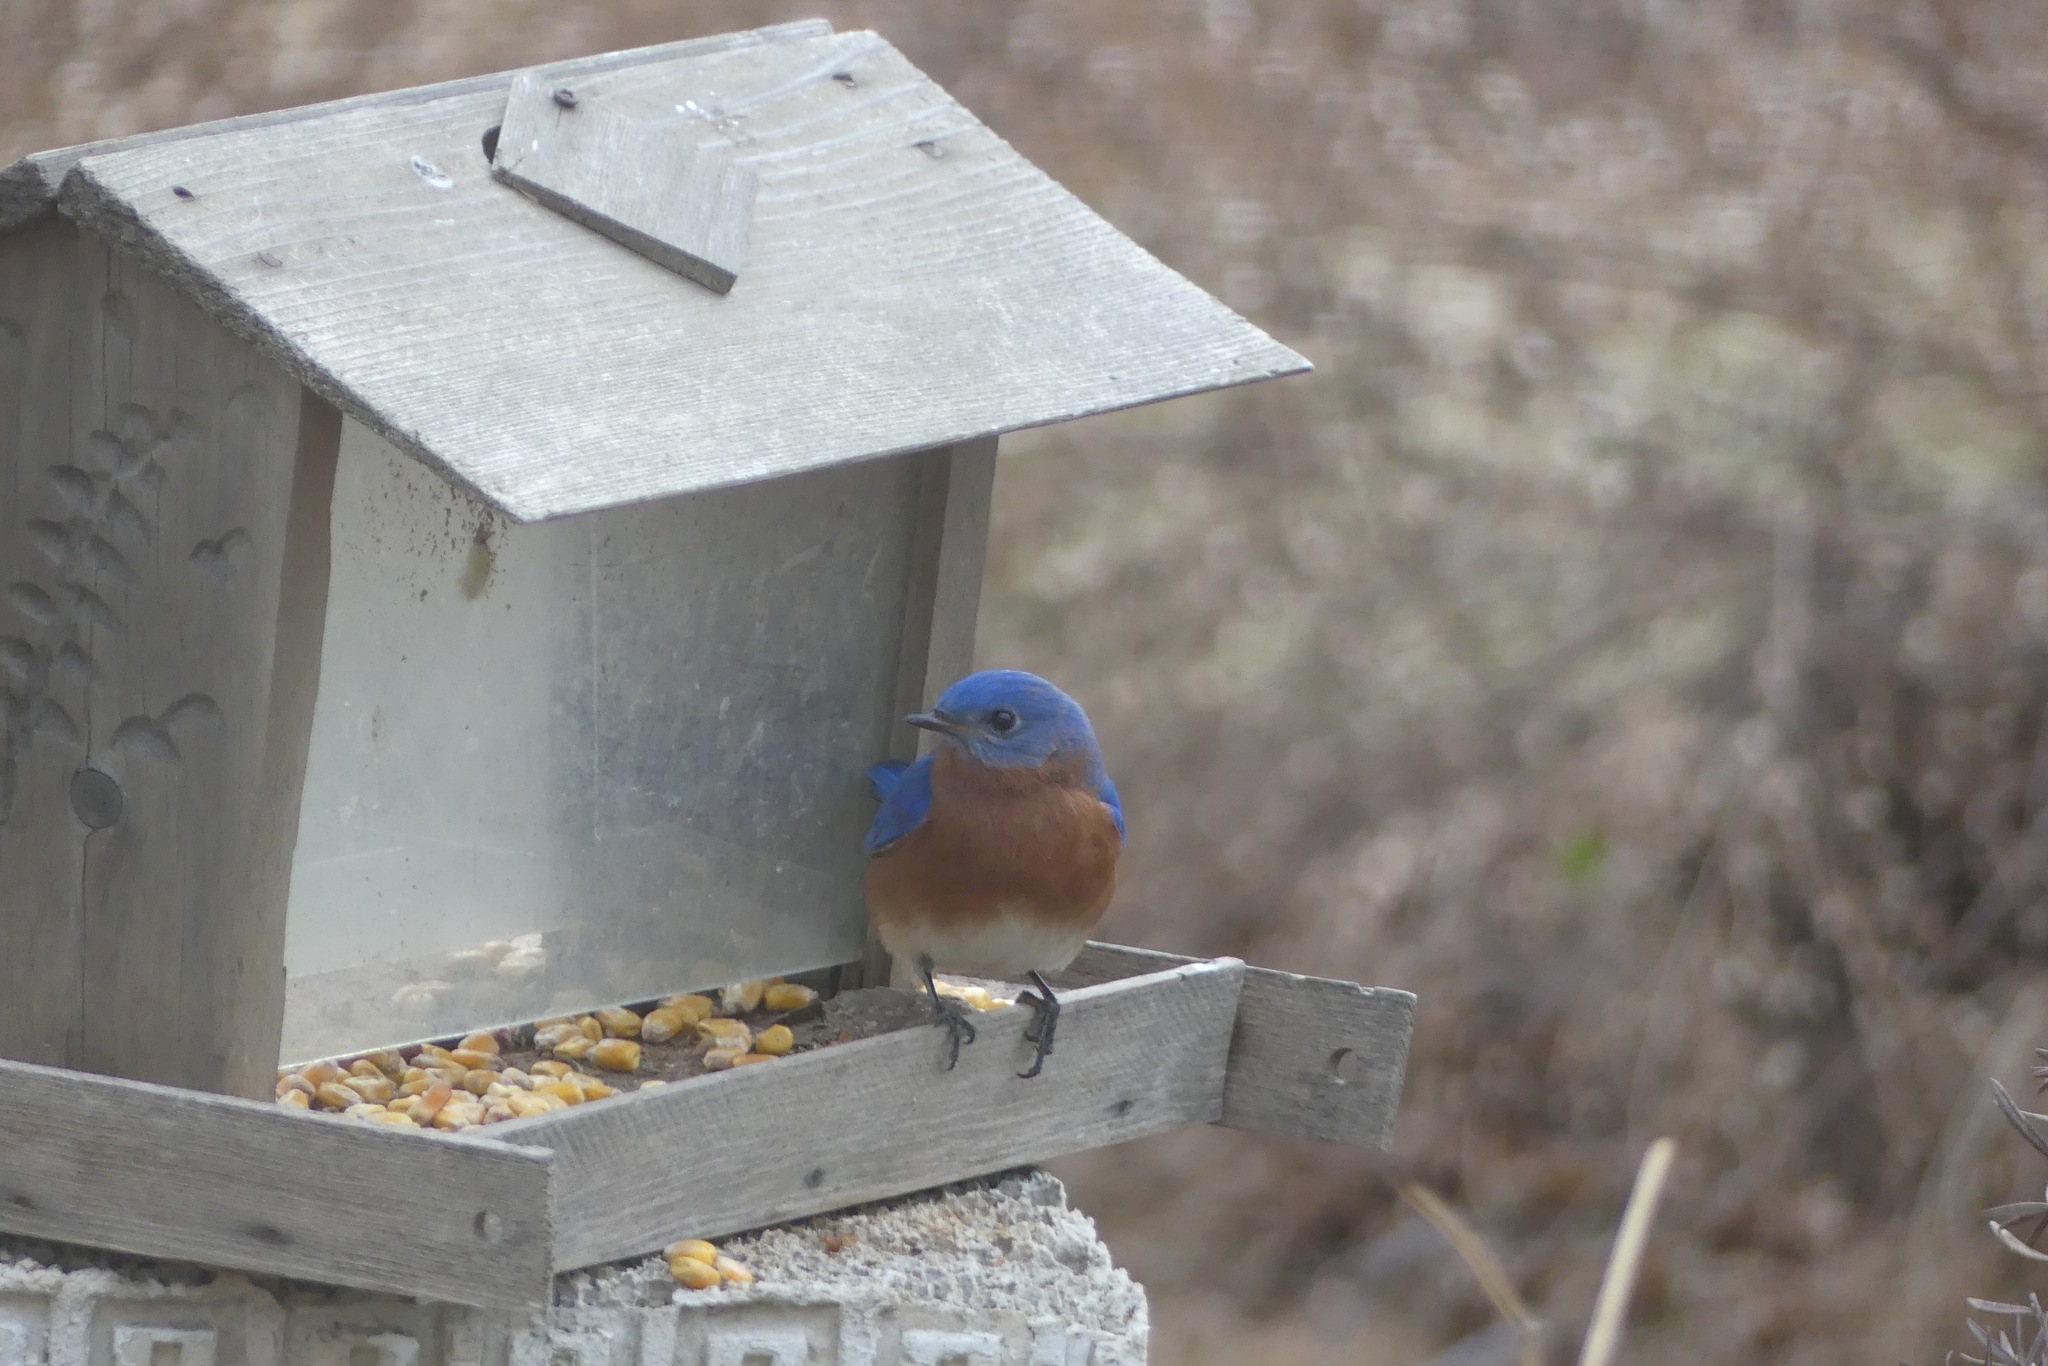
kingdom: Animalia
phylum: Chordata
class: Aves
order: Passeriformes
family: Turdidae
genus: Sialia
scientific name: Sialia sialis
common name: Eastern bluebird
